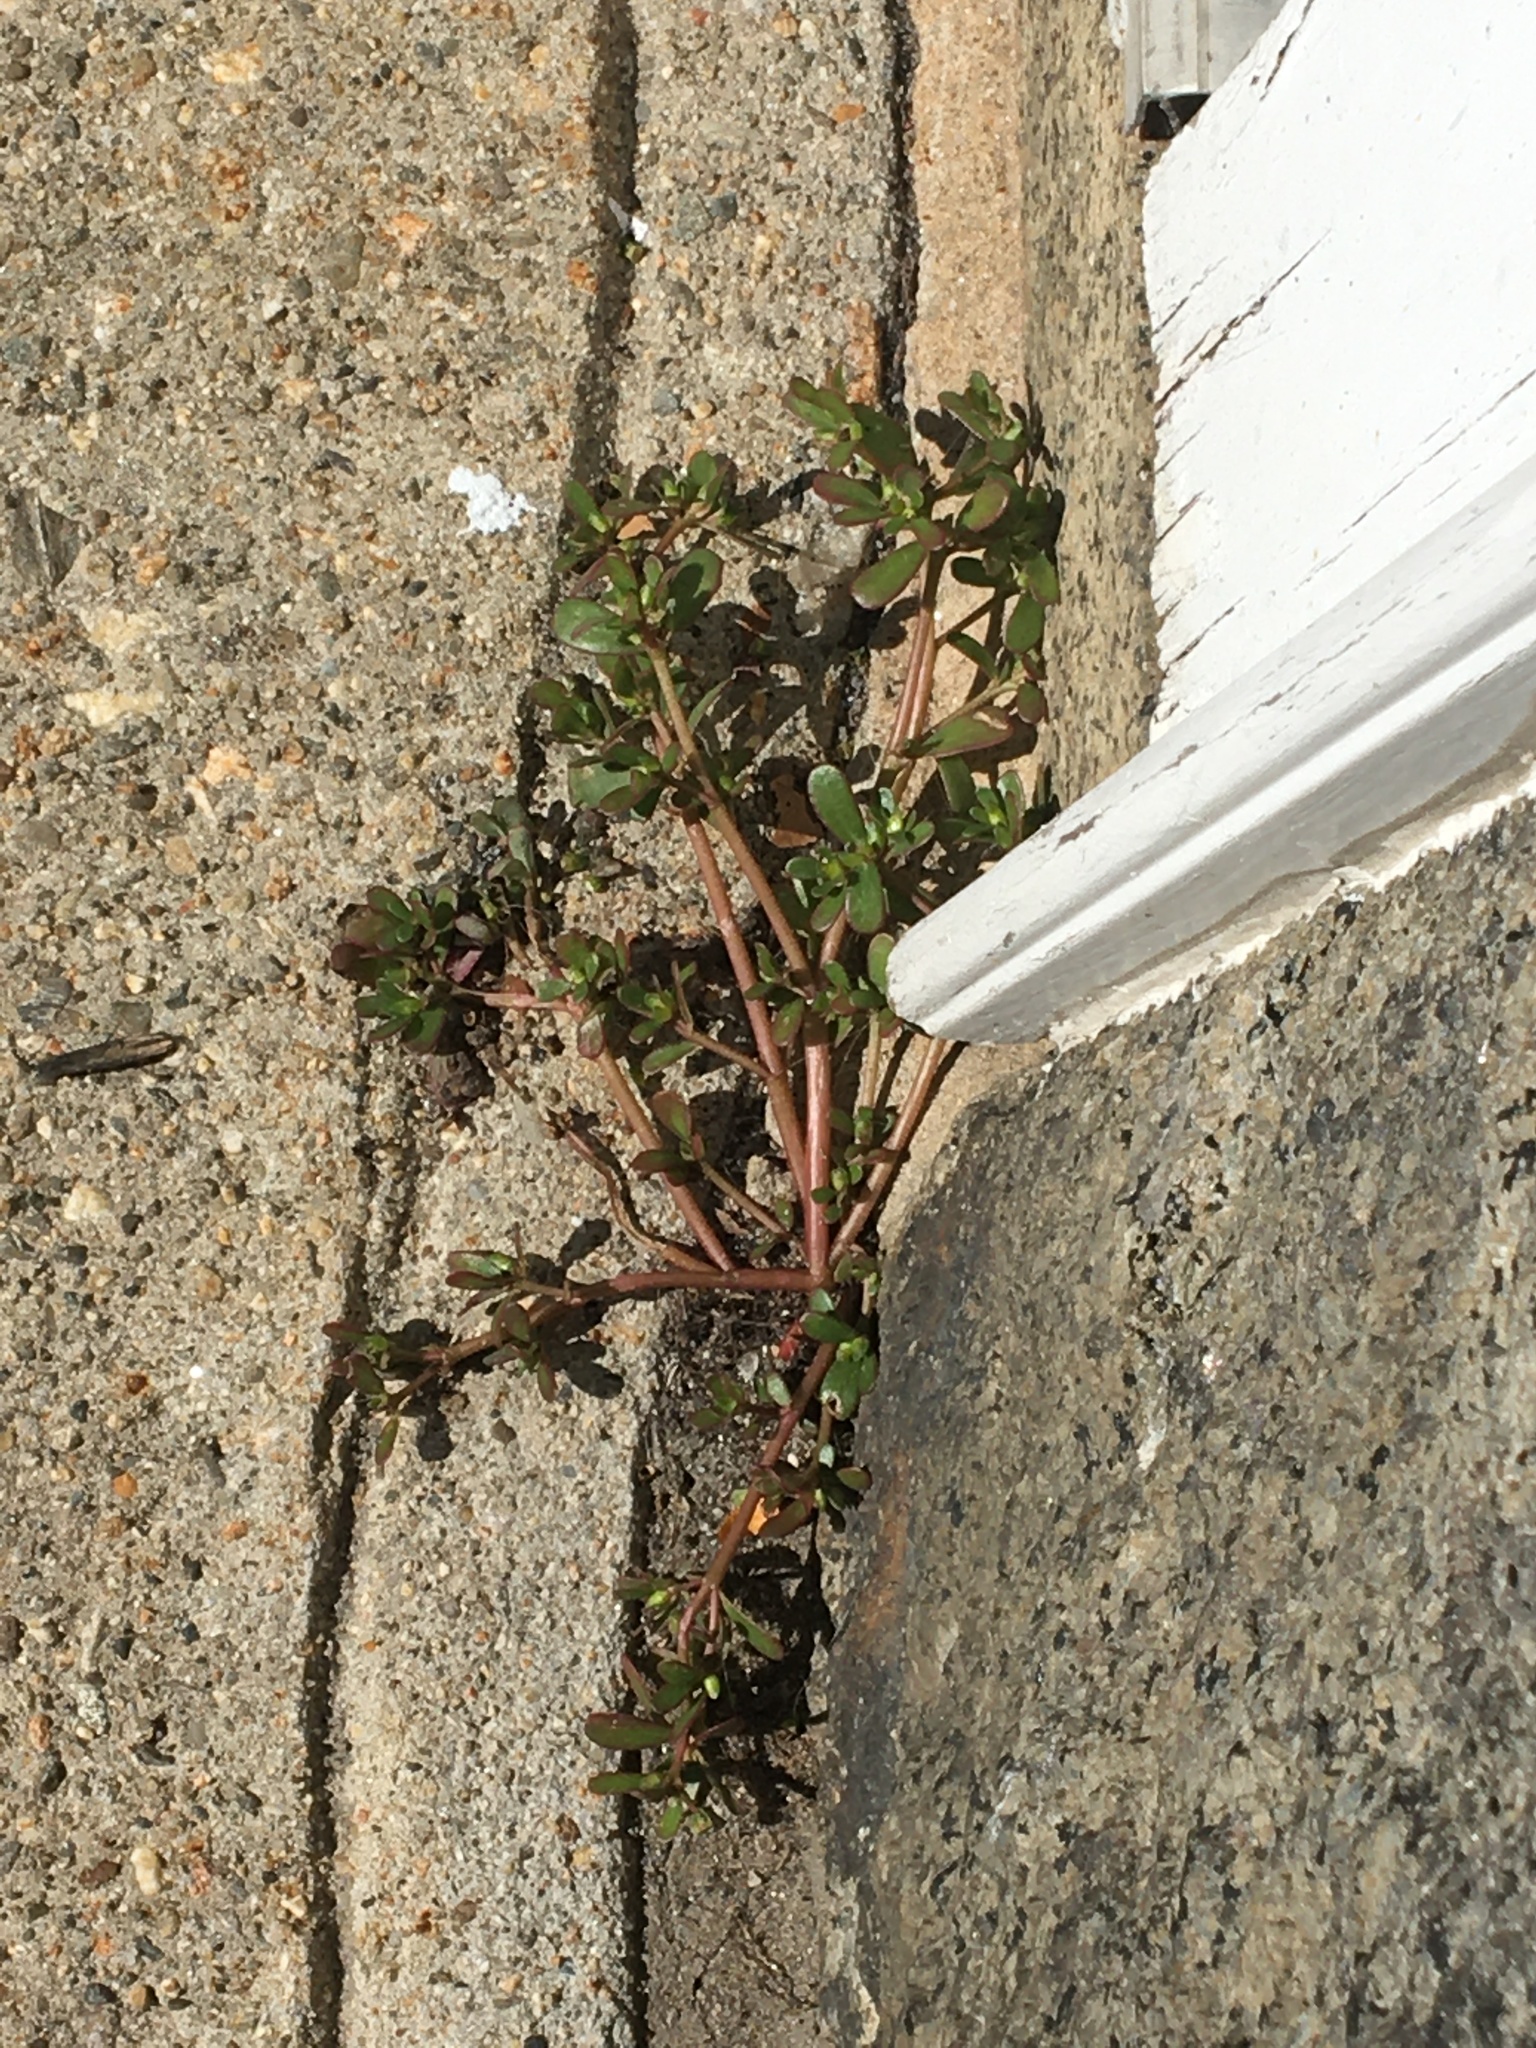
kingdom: Plantae
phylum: Tracheophyta
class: Magnoliopsida
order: Caryophyllales
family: Portulacaceae
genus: Portulaca
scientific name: Portulaca oleracea
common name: Common purslane
